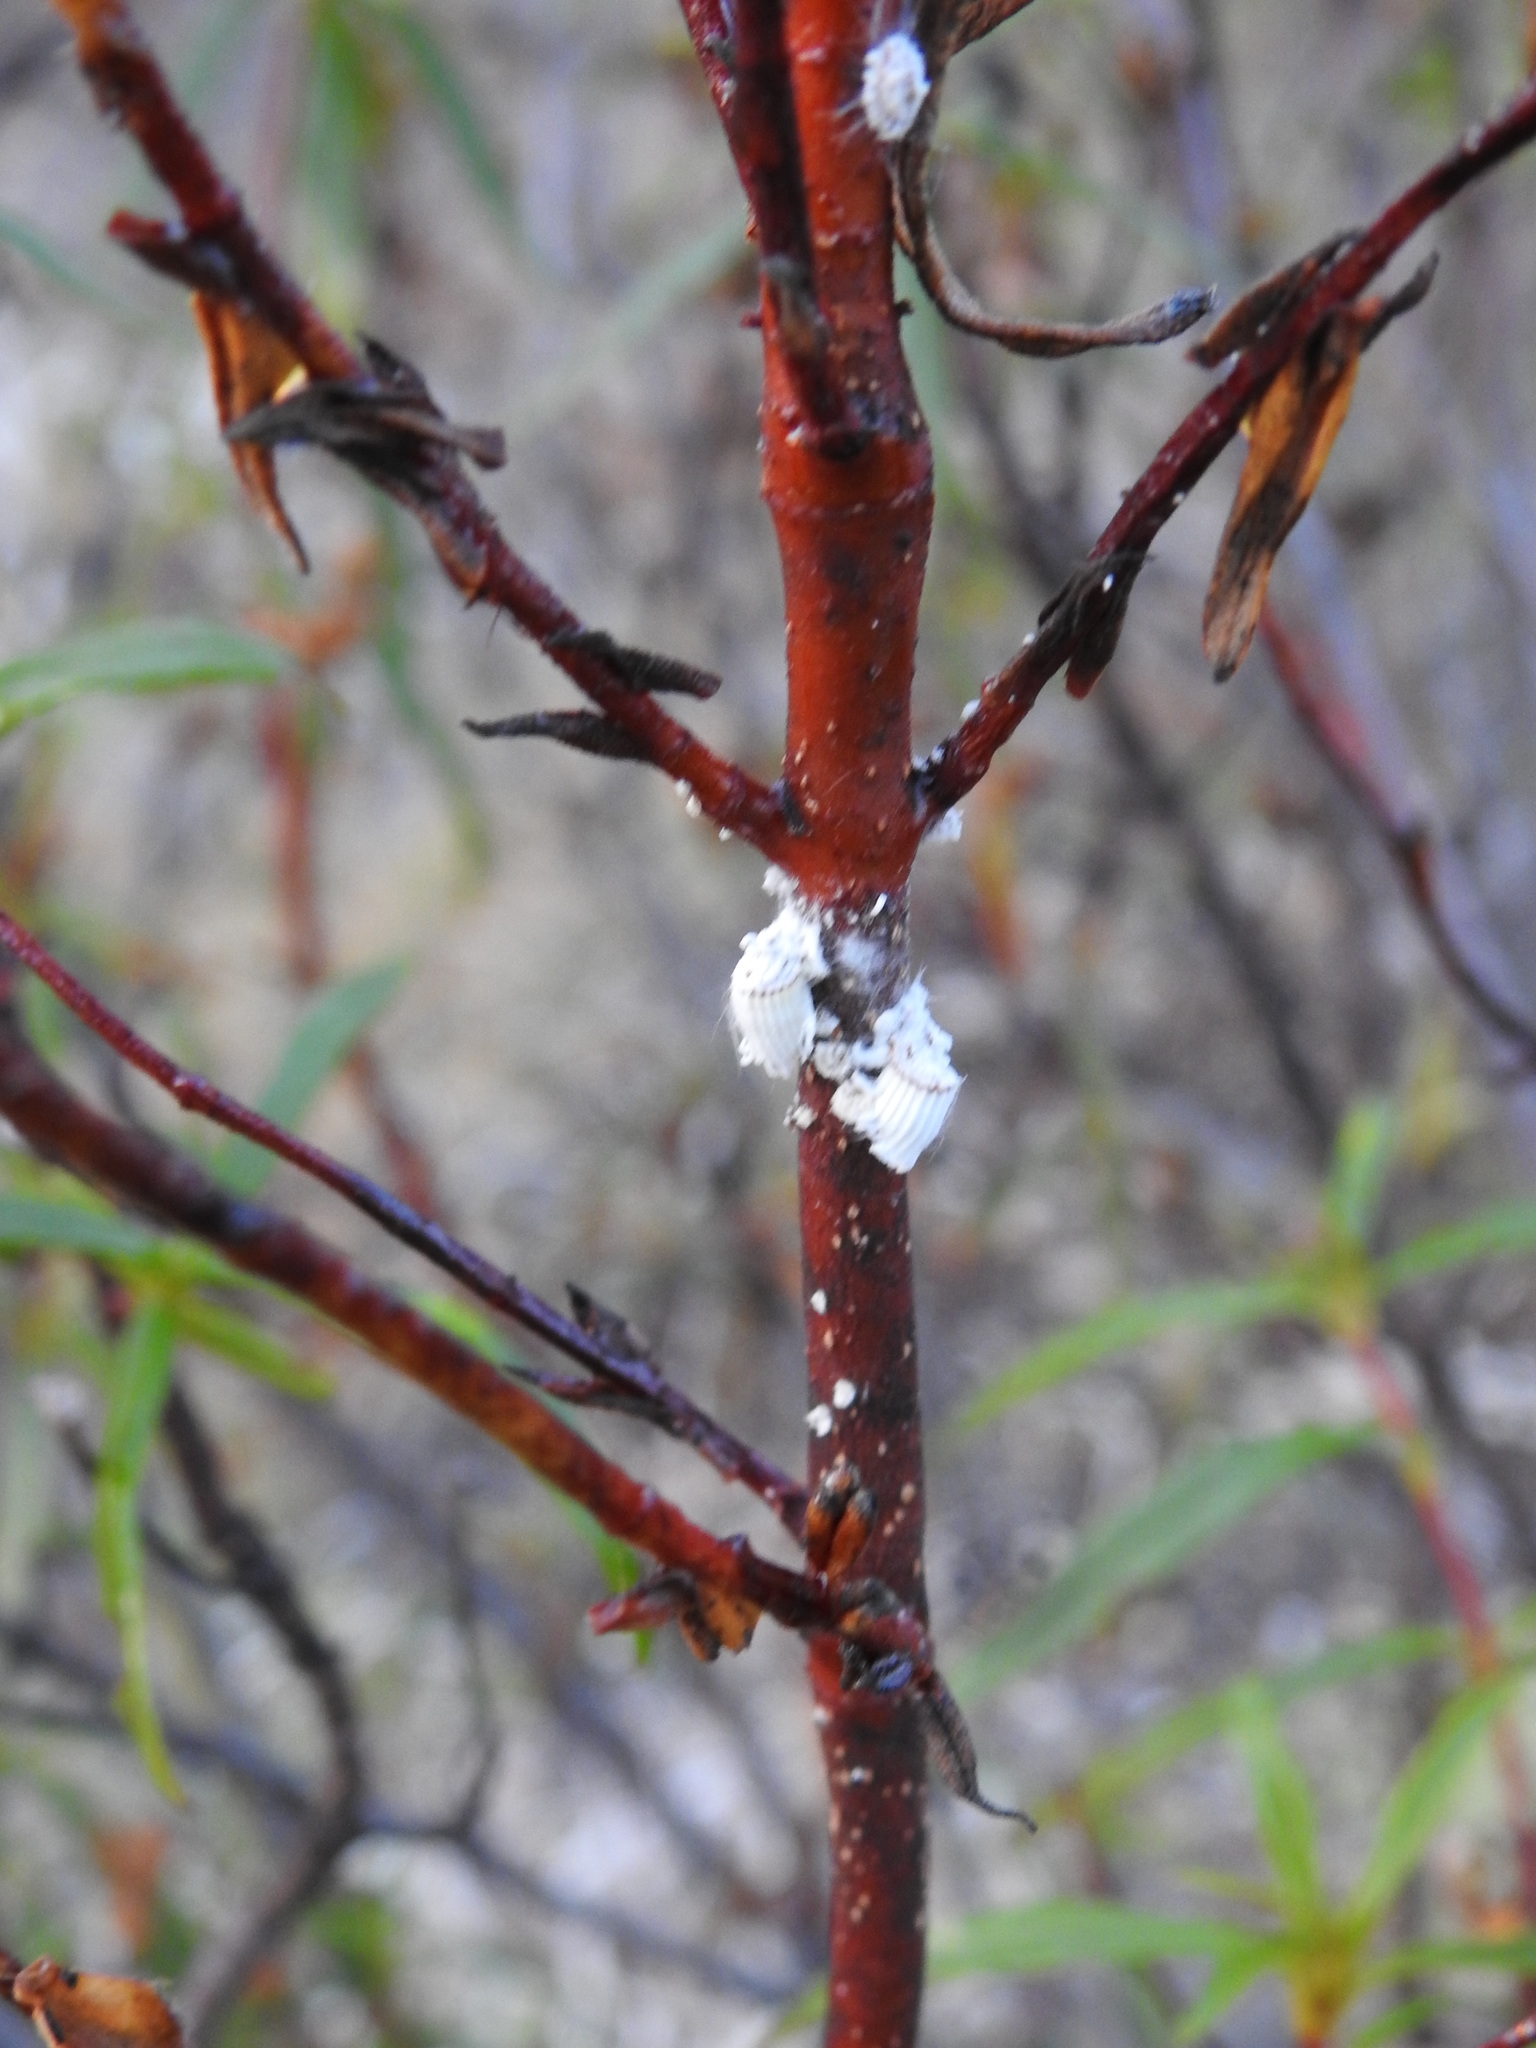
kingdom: Animalia
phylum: Arthropoda
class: Insecta
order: Hemiptera
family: Margarodidae
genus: Icerya
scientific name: Icerya purchasi
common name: Cottony cushion scale
